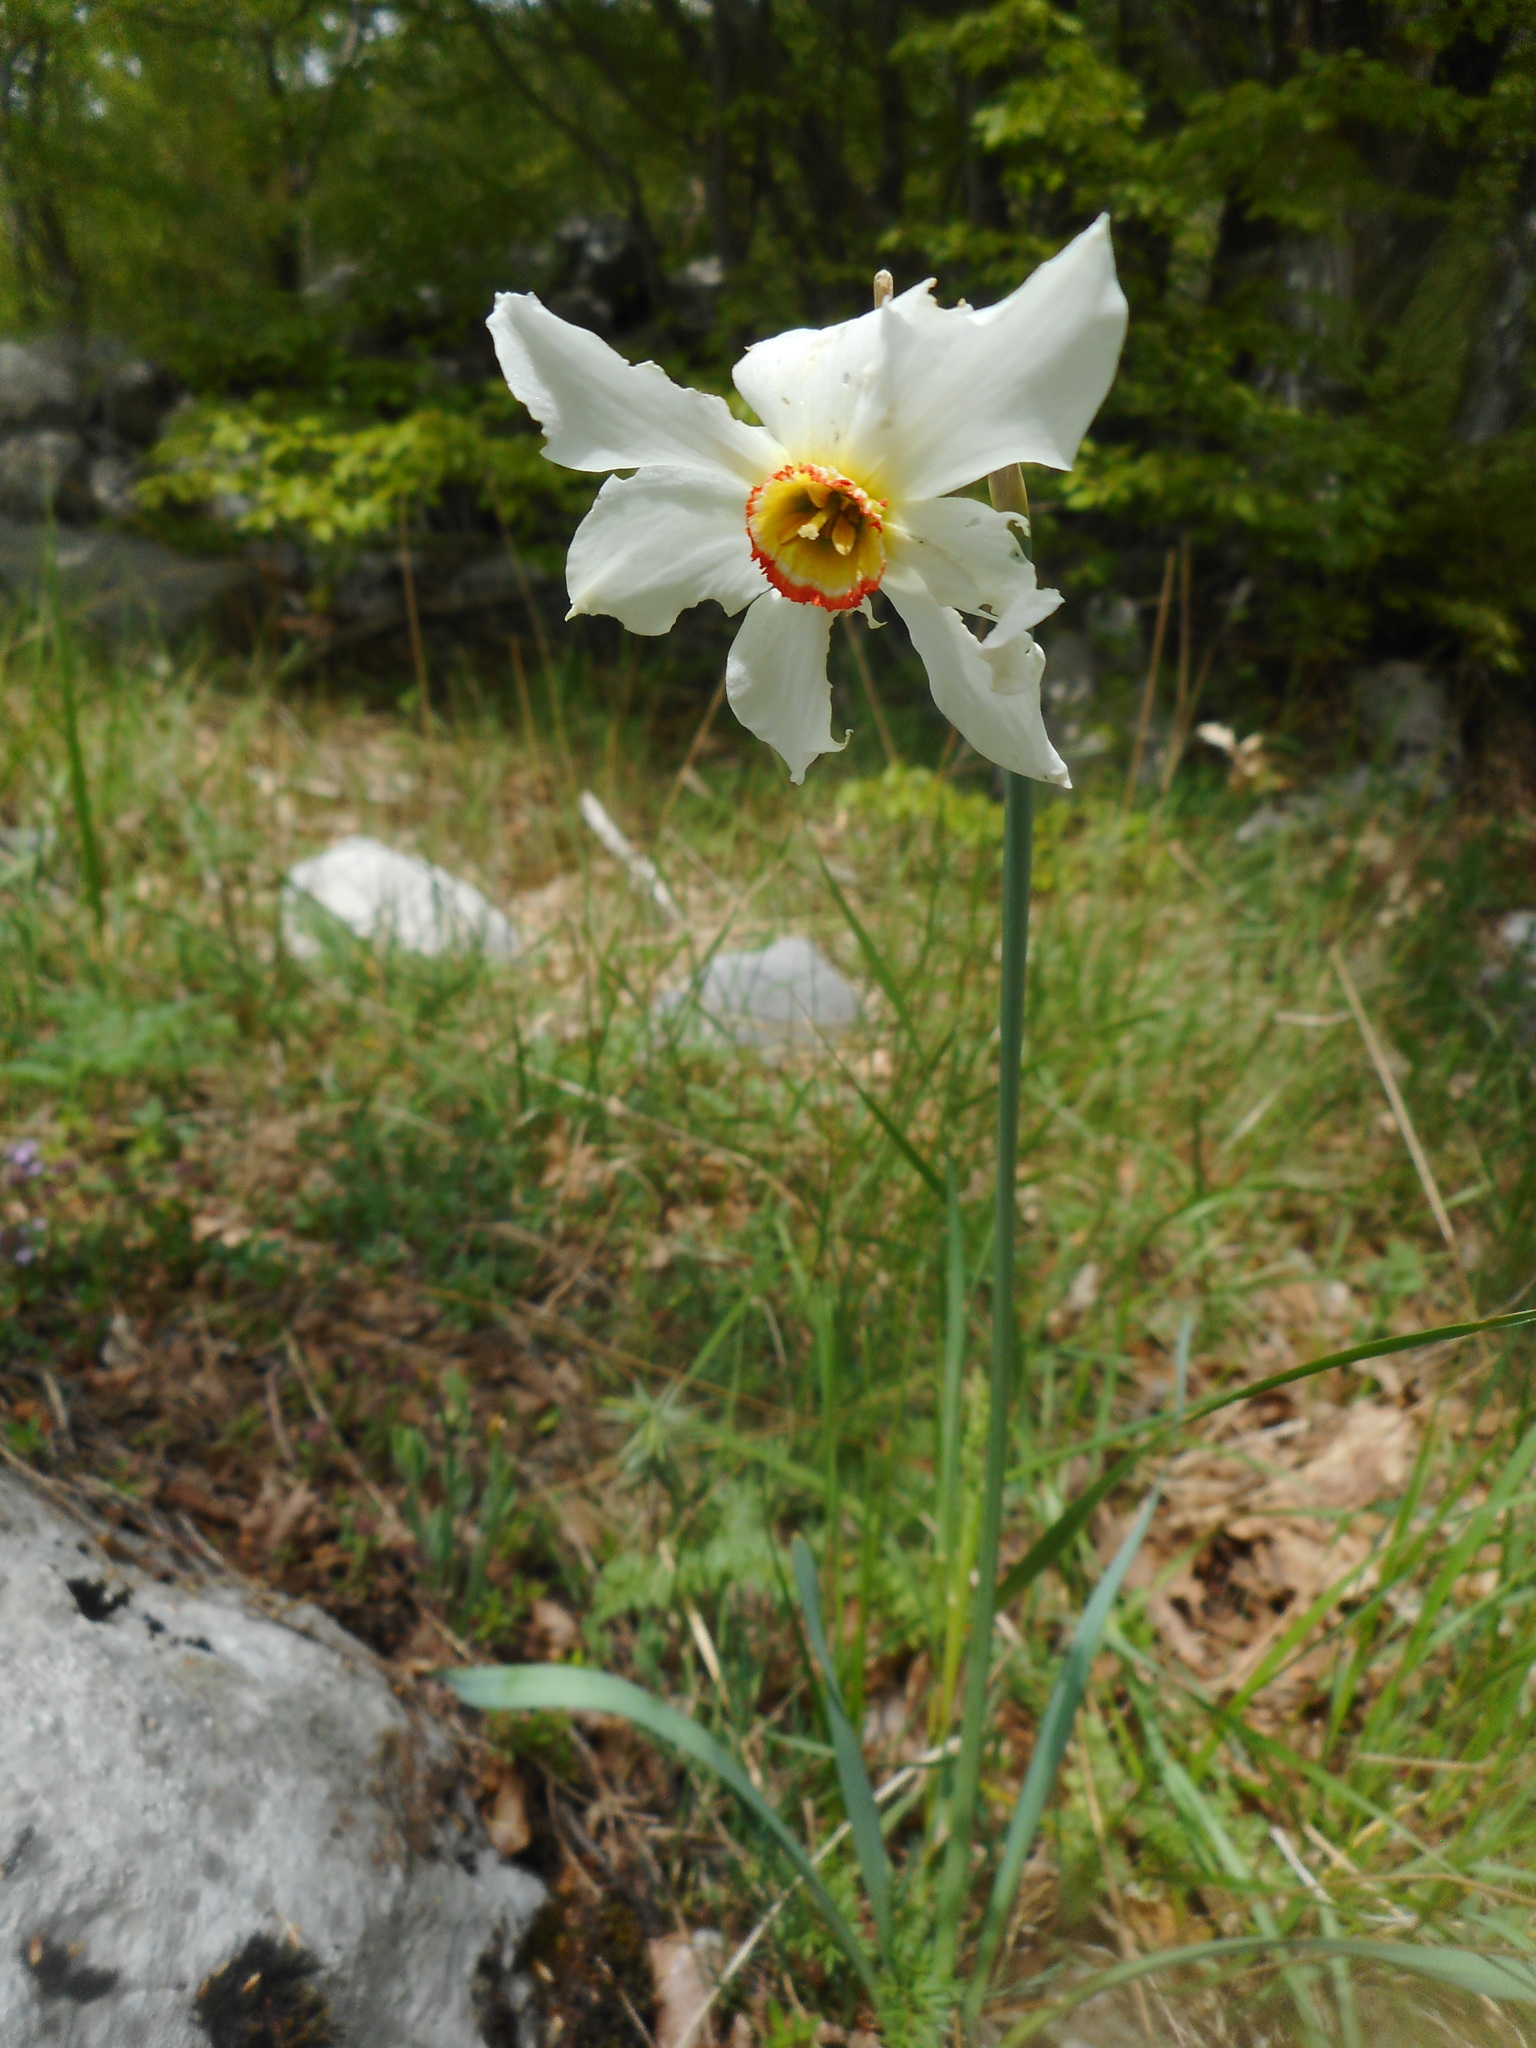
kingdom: Plantae
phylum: Tracheophyta
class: Liliopsida
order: Asparagales
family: Amaryllidaceae
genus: Narcissus
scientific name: Narcissus poeticus
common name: Pheasant's-eye daffodil
